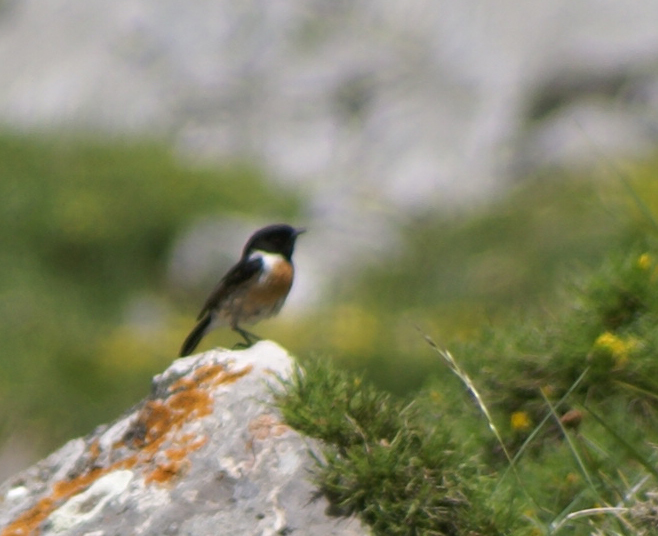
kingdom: Animalia
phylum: Chordata
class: Aves
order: Passeriformes
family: Muscicapidae
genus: Saxicola
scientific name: Saxicola rubicola
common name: European stonechat
